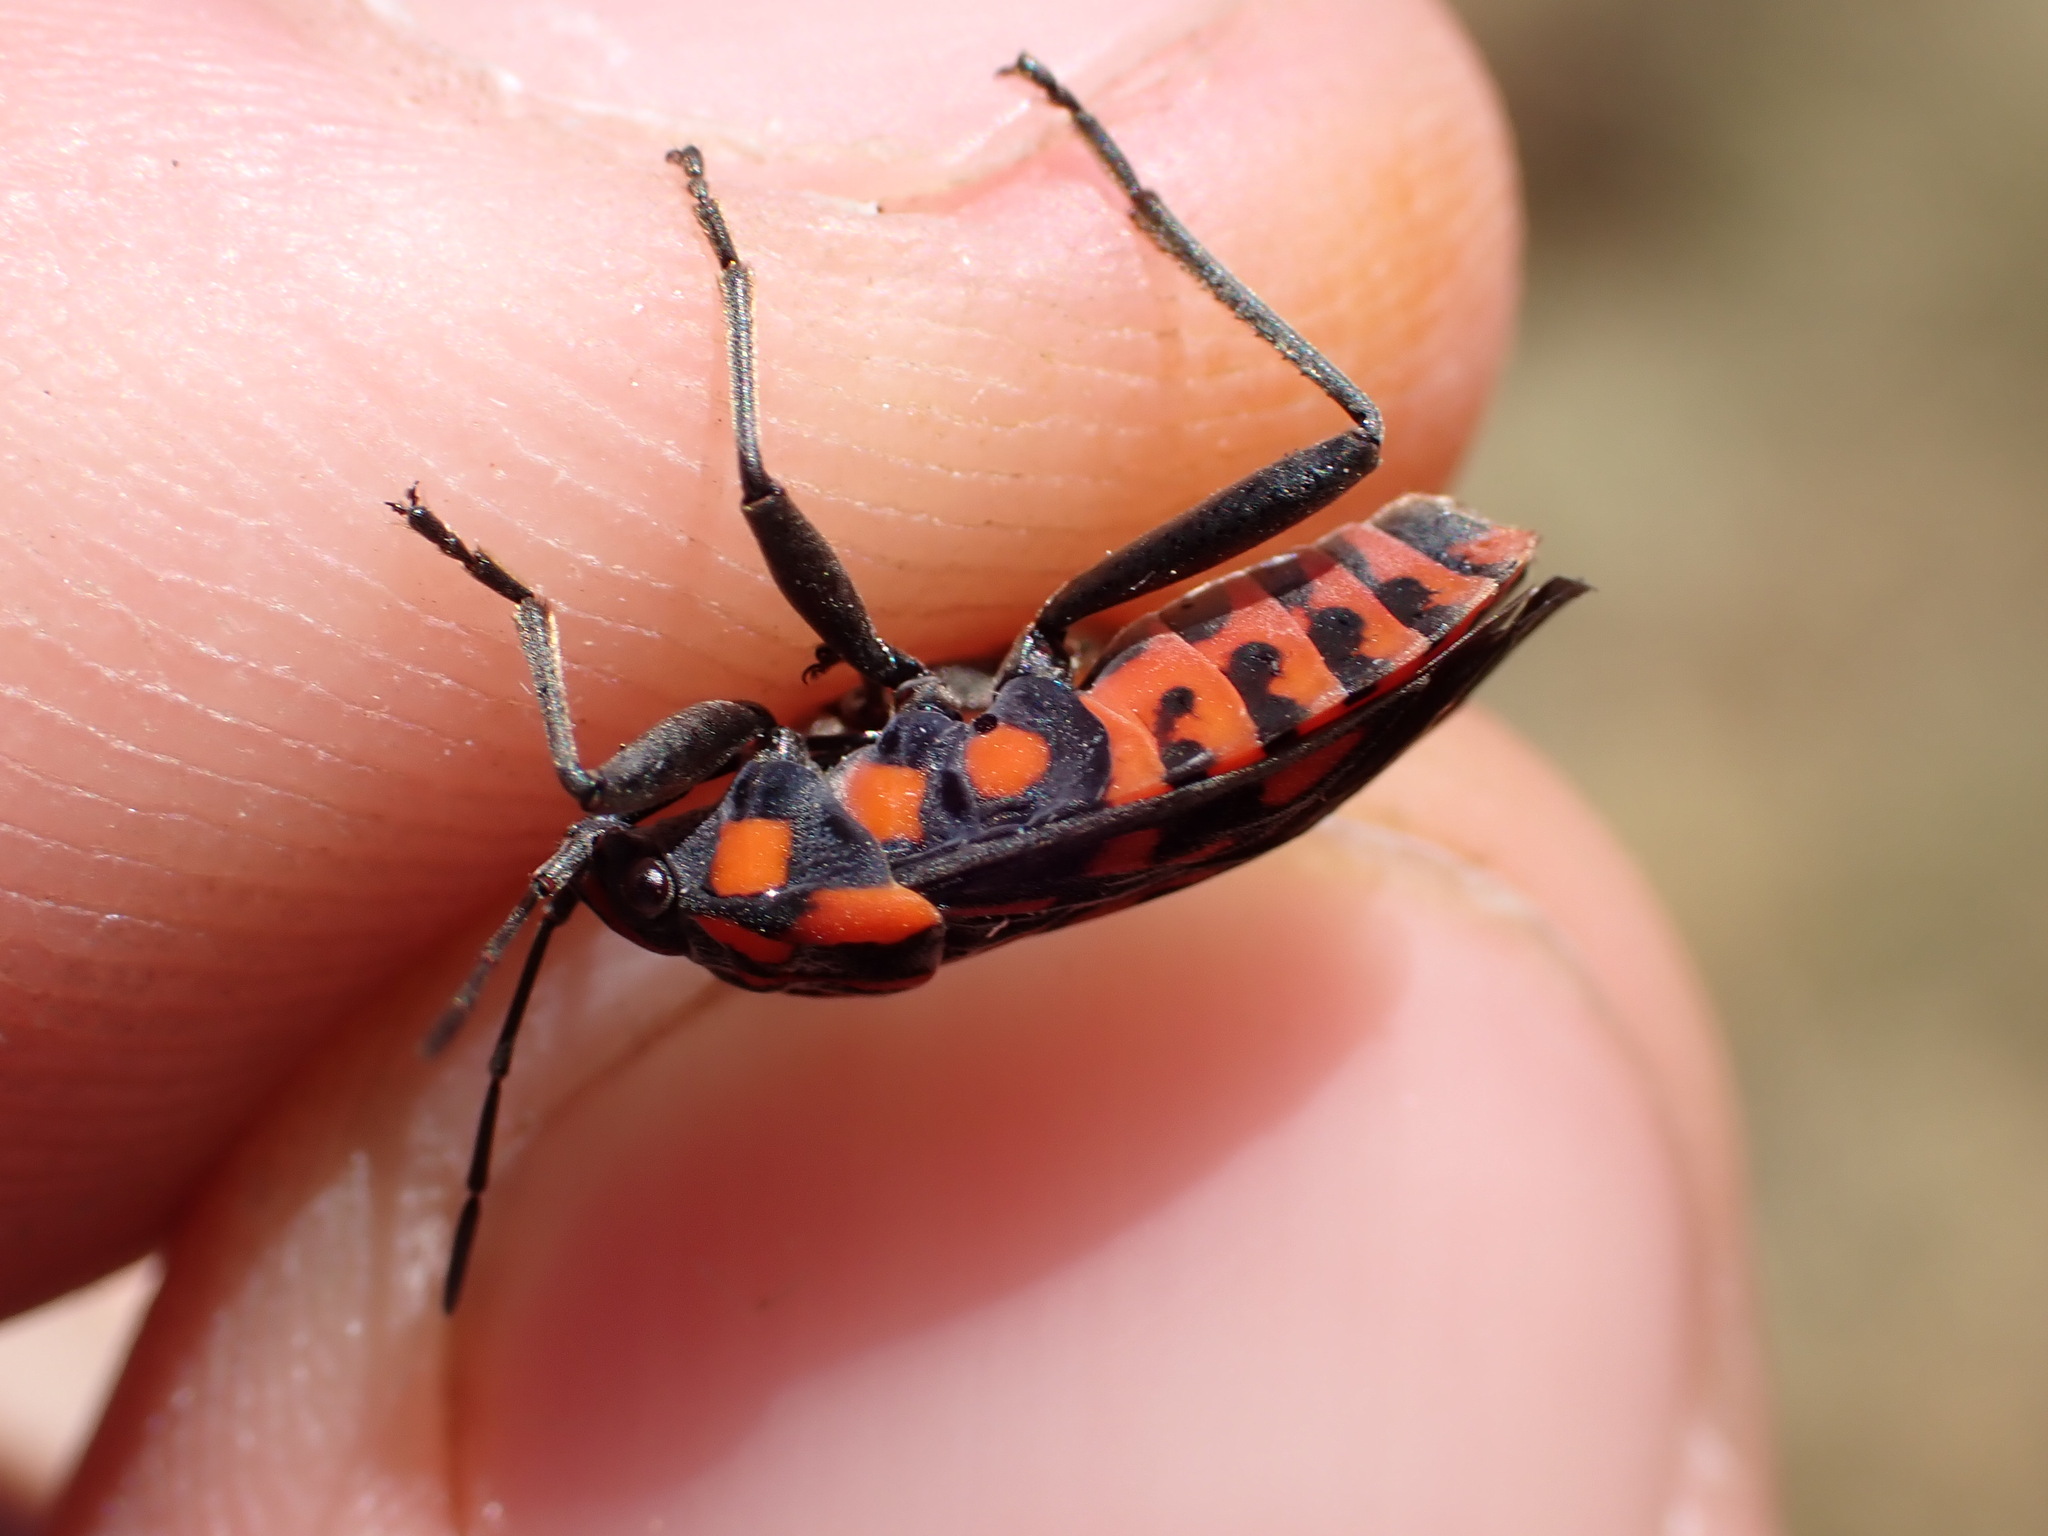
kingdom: Animalia
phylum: Arthropoda
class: Insecta
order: Hemiptera
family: Lygaeidae
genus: Spilostethus
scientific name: Spilostethus saxatilis
